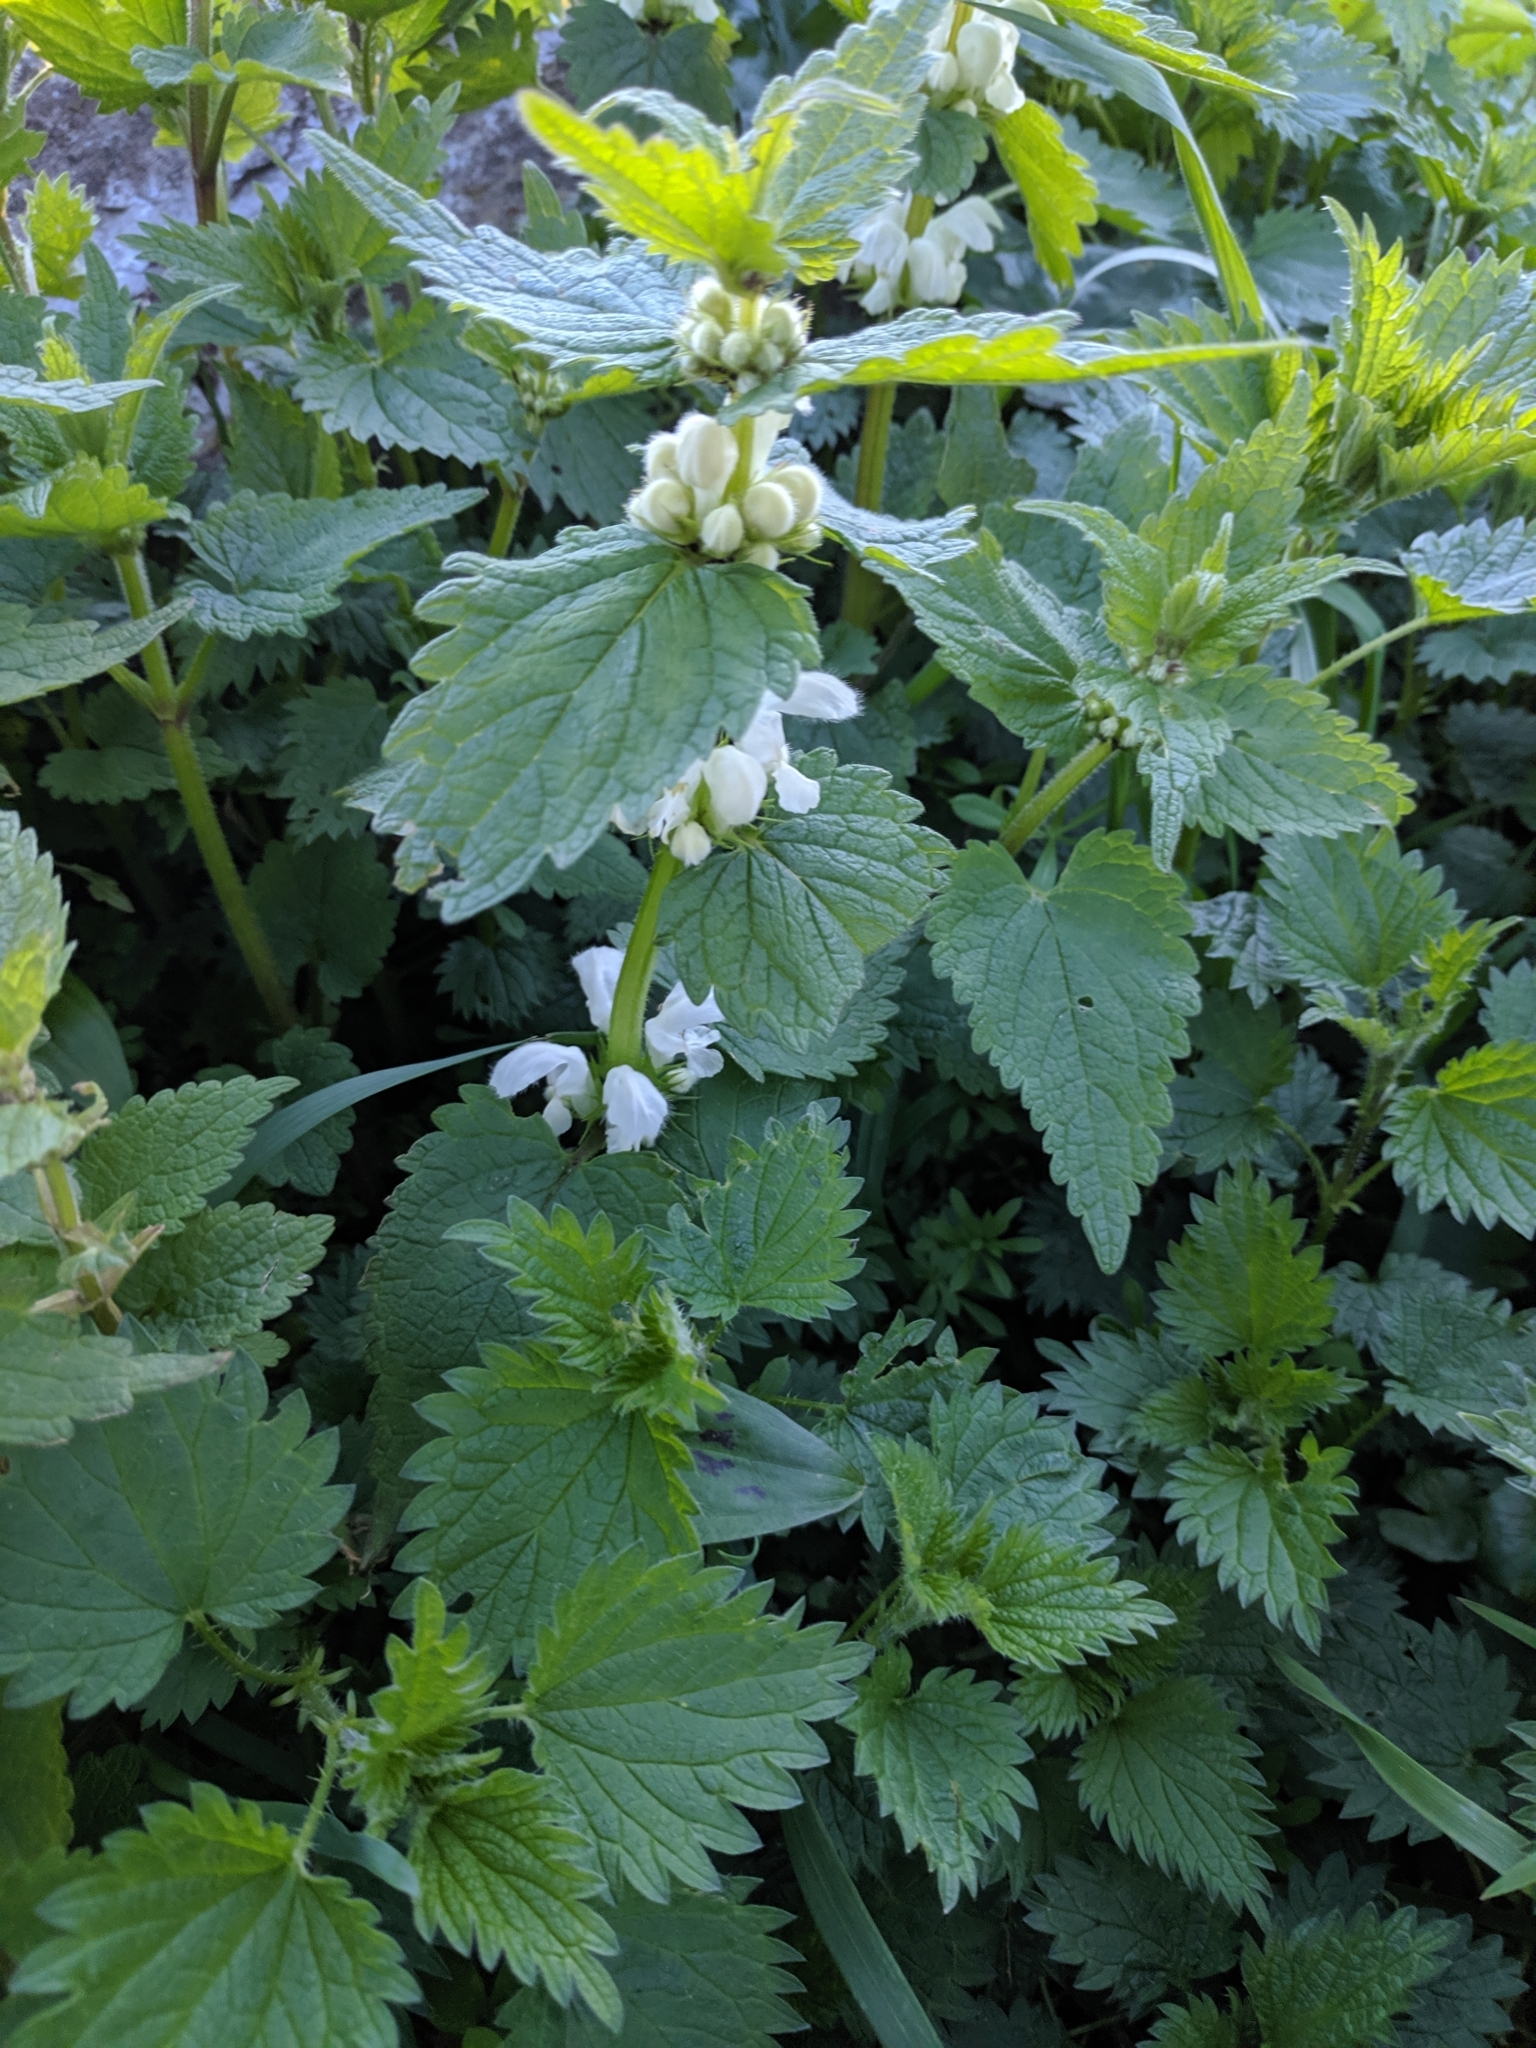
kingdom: Plantae
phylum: Tracheophyta
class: Magnoliopsida
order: Lamiales
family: Lamiaceae
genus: Lamium
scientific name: Lamium album
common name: White dead-nettle
